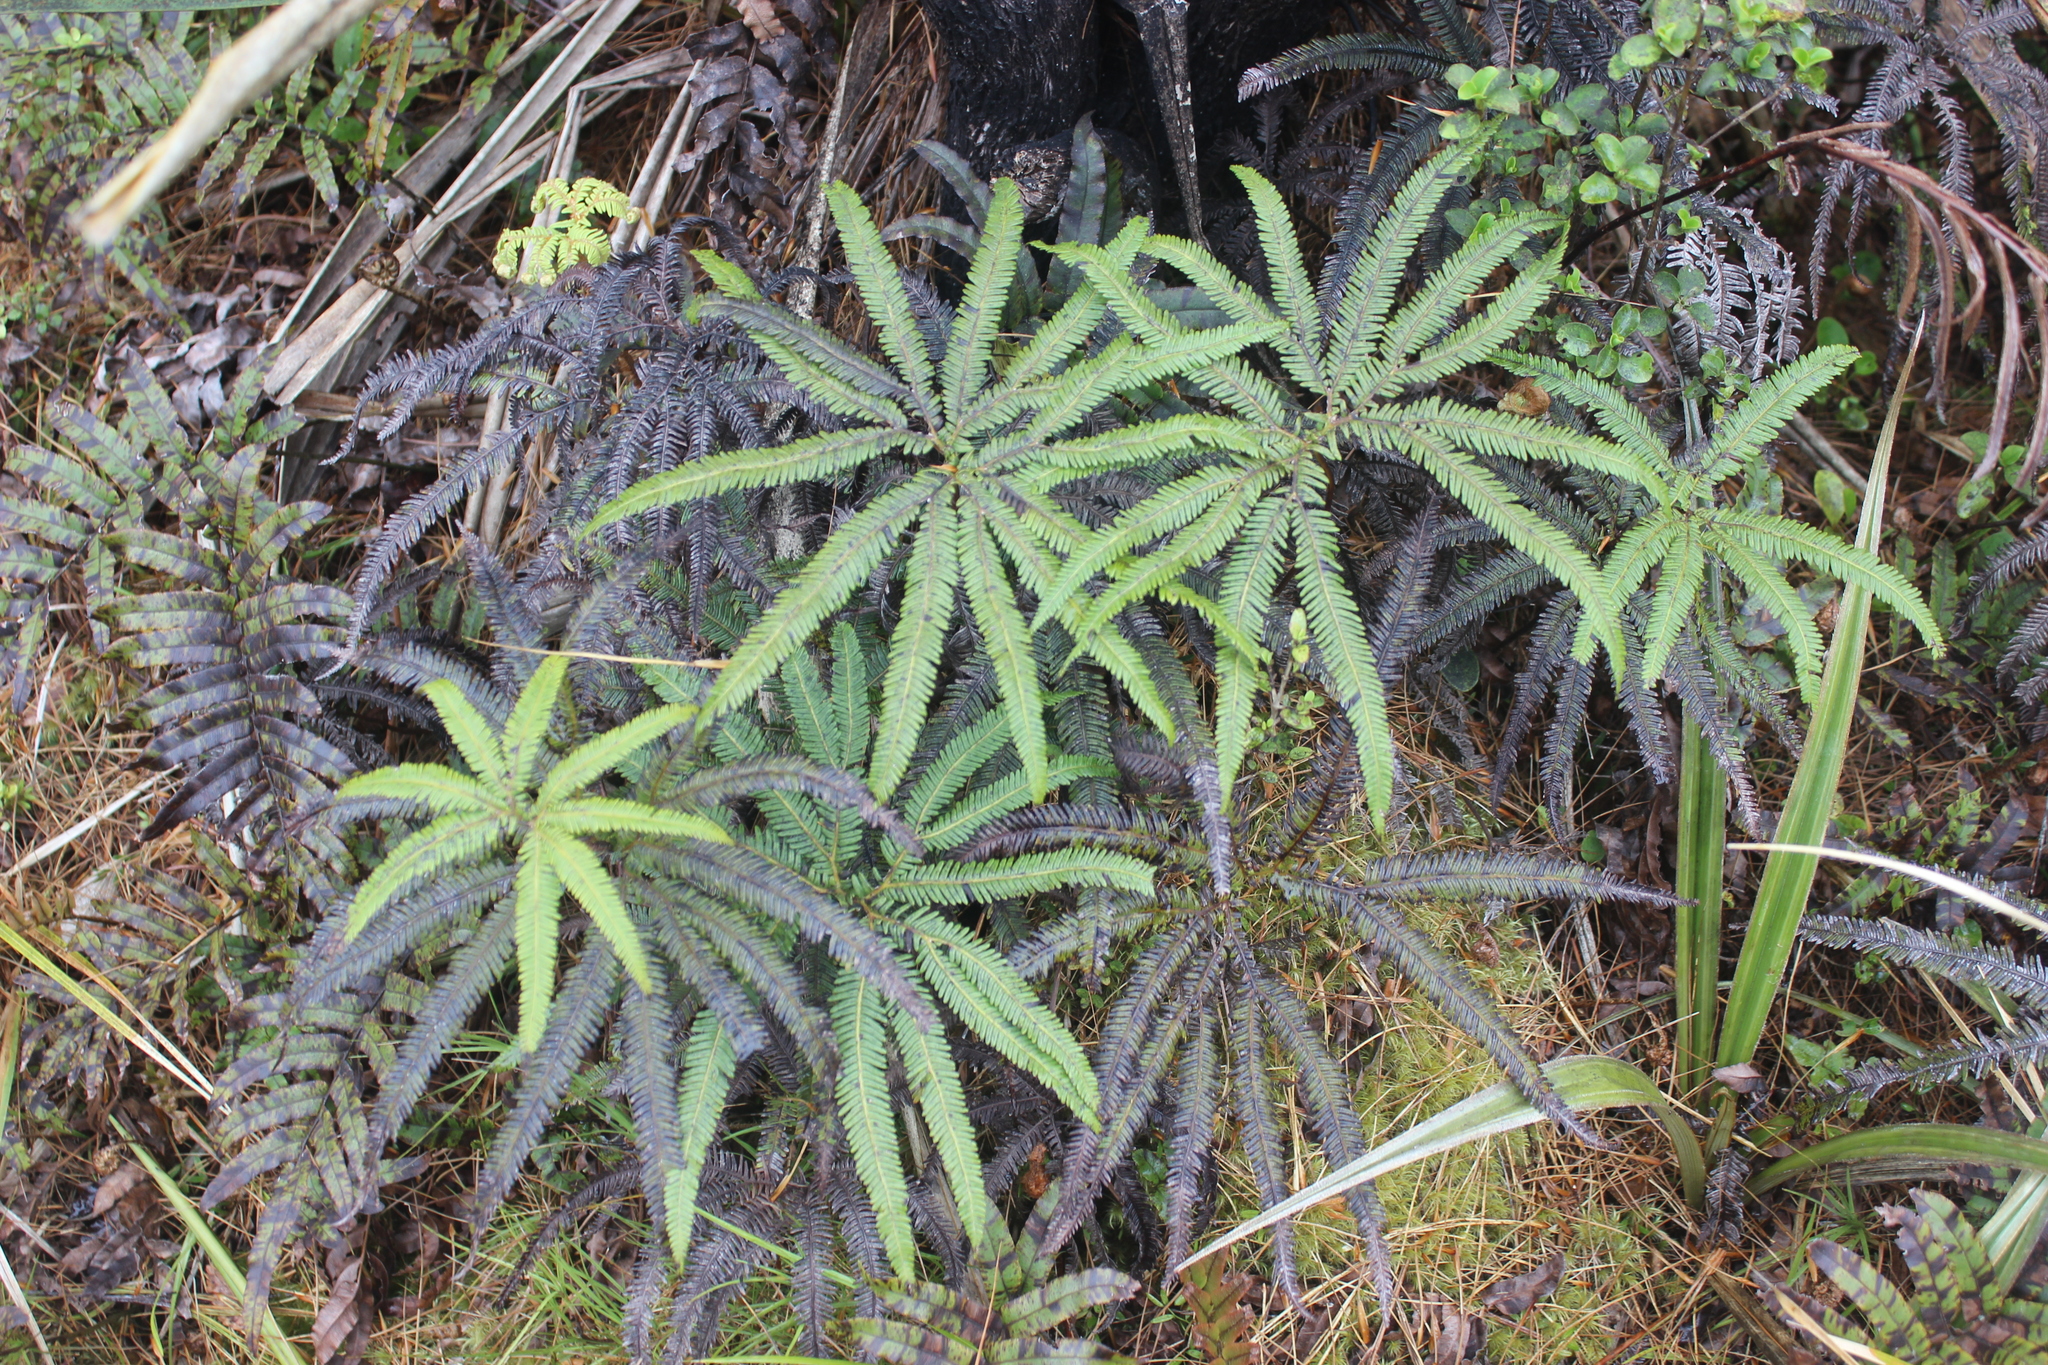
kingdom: Plantae
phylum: Tracheophyta
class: Polypodiopsida
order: Gleicheniales
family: Gleicheniaceae
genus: Sticherus
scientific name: Sticherus cunninghamii
